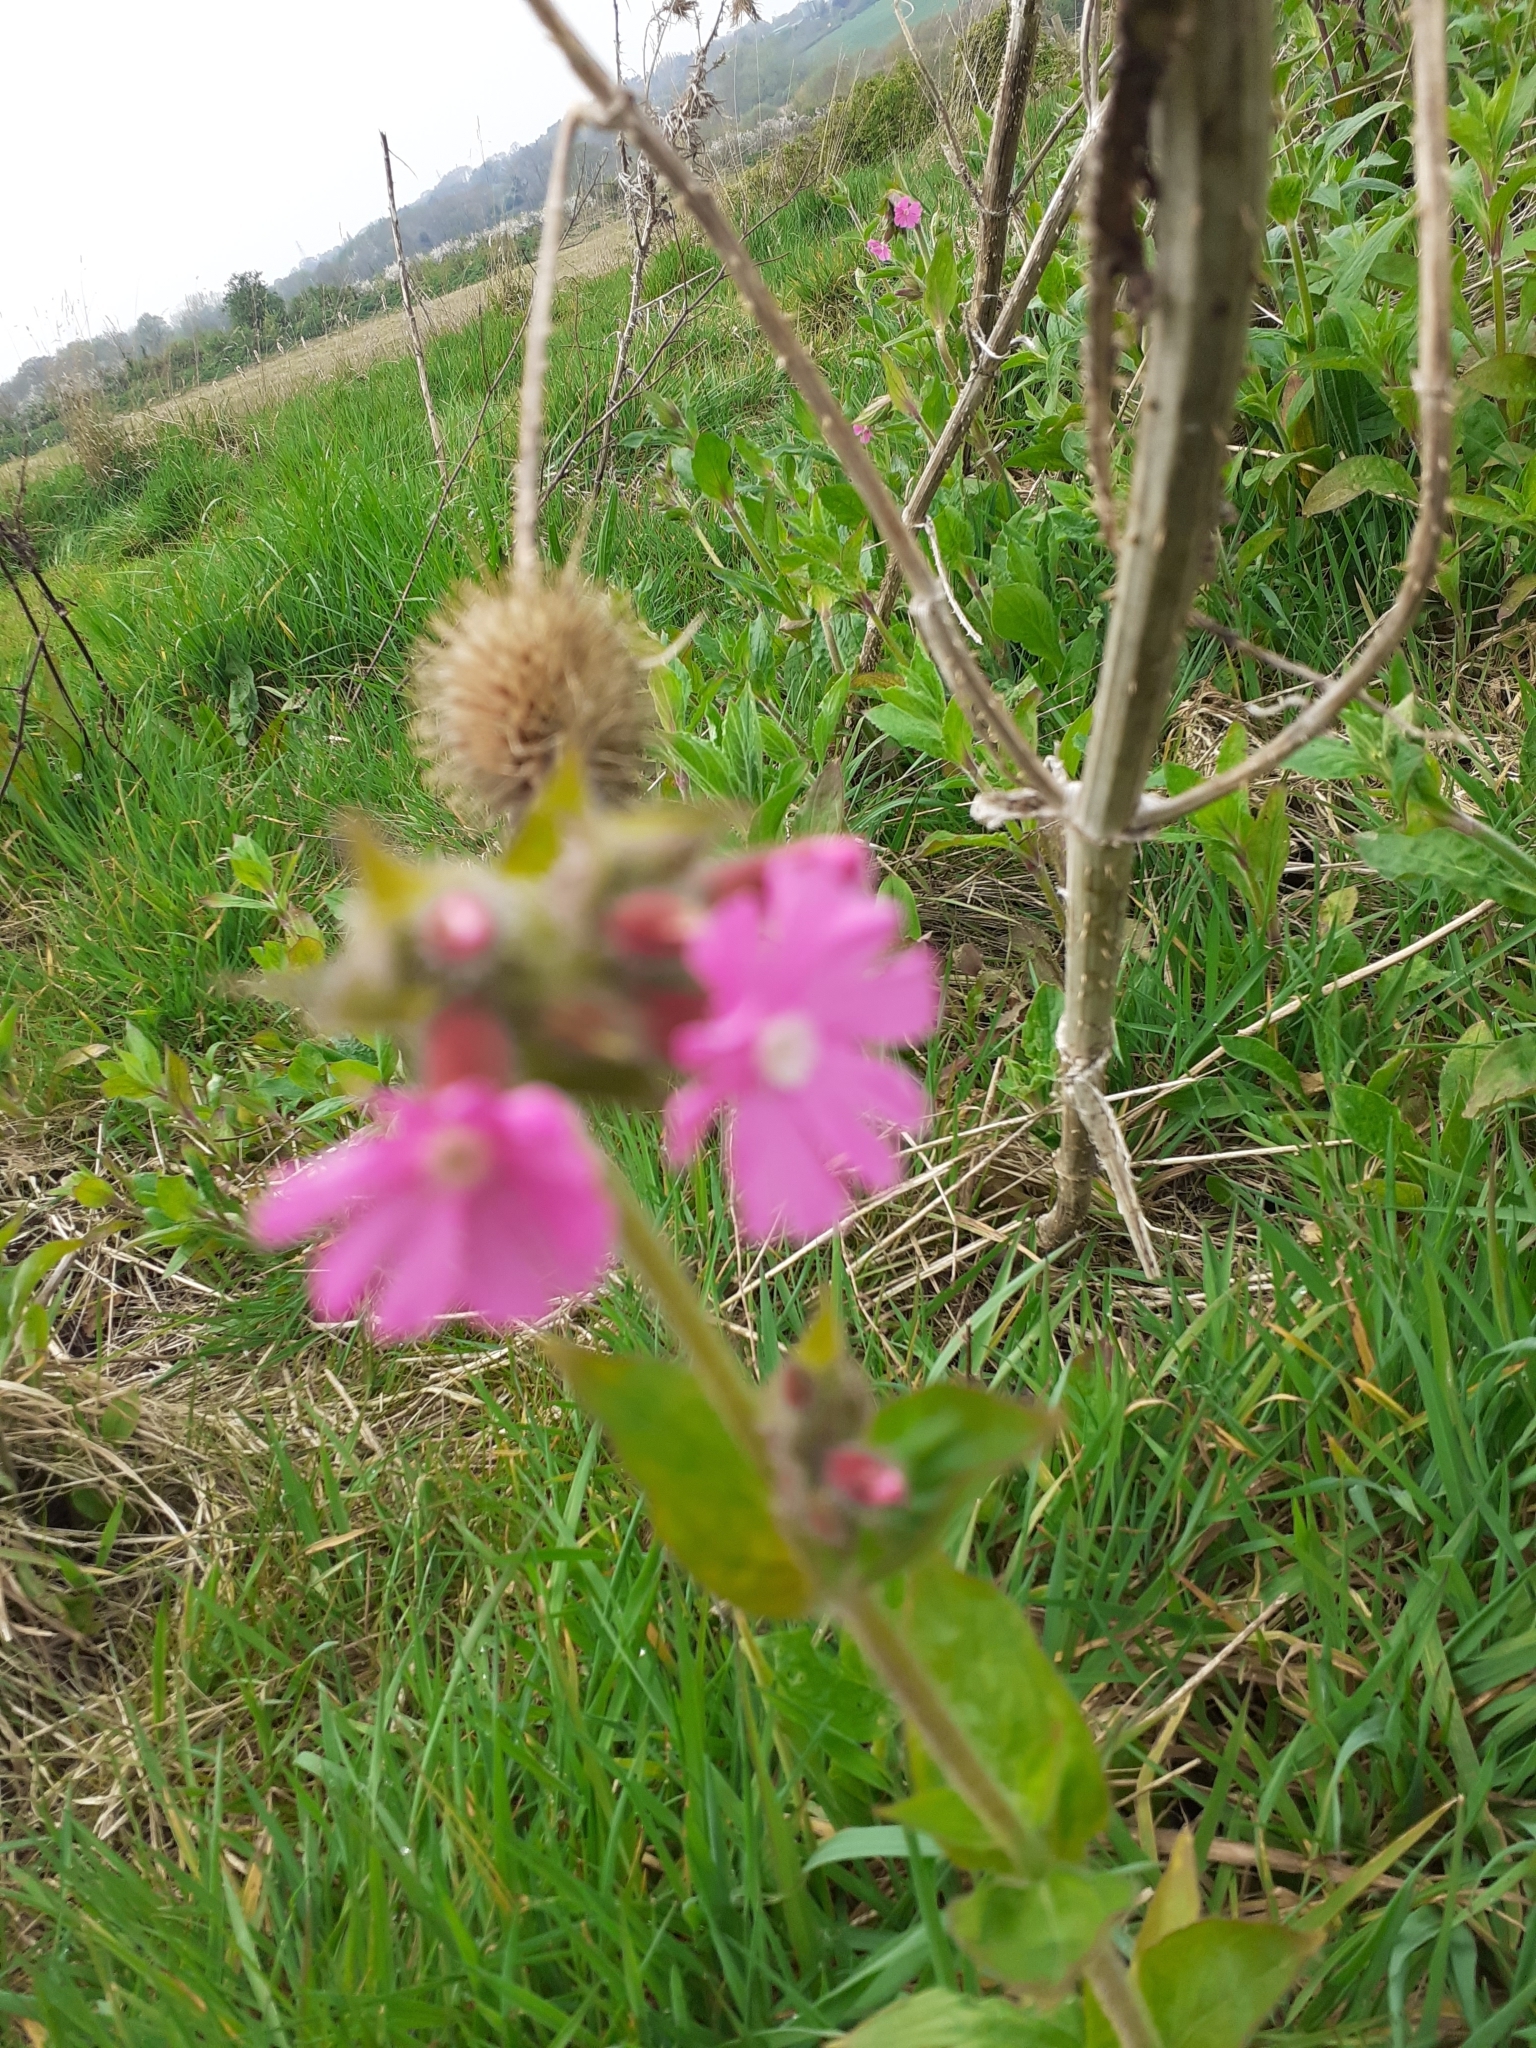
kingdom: Plantae
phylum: Tracheophyta
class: Magnoliopsida
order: Caryophyllales
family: Caryophyllaceae
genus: Silene
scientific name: Silene dioica
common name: Red campion
